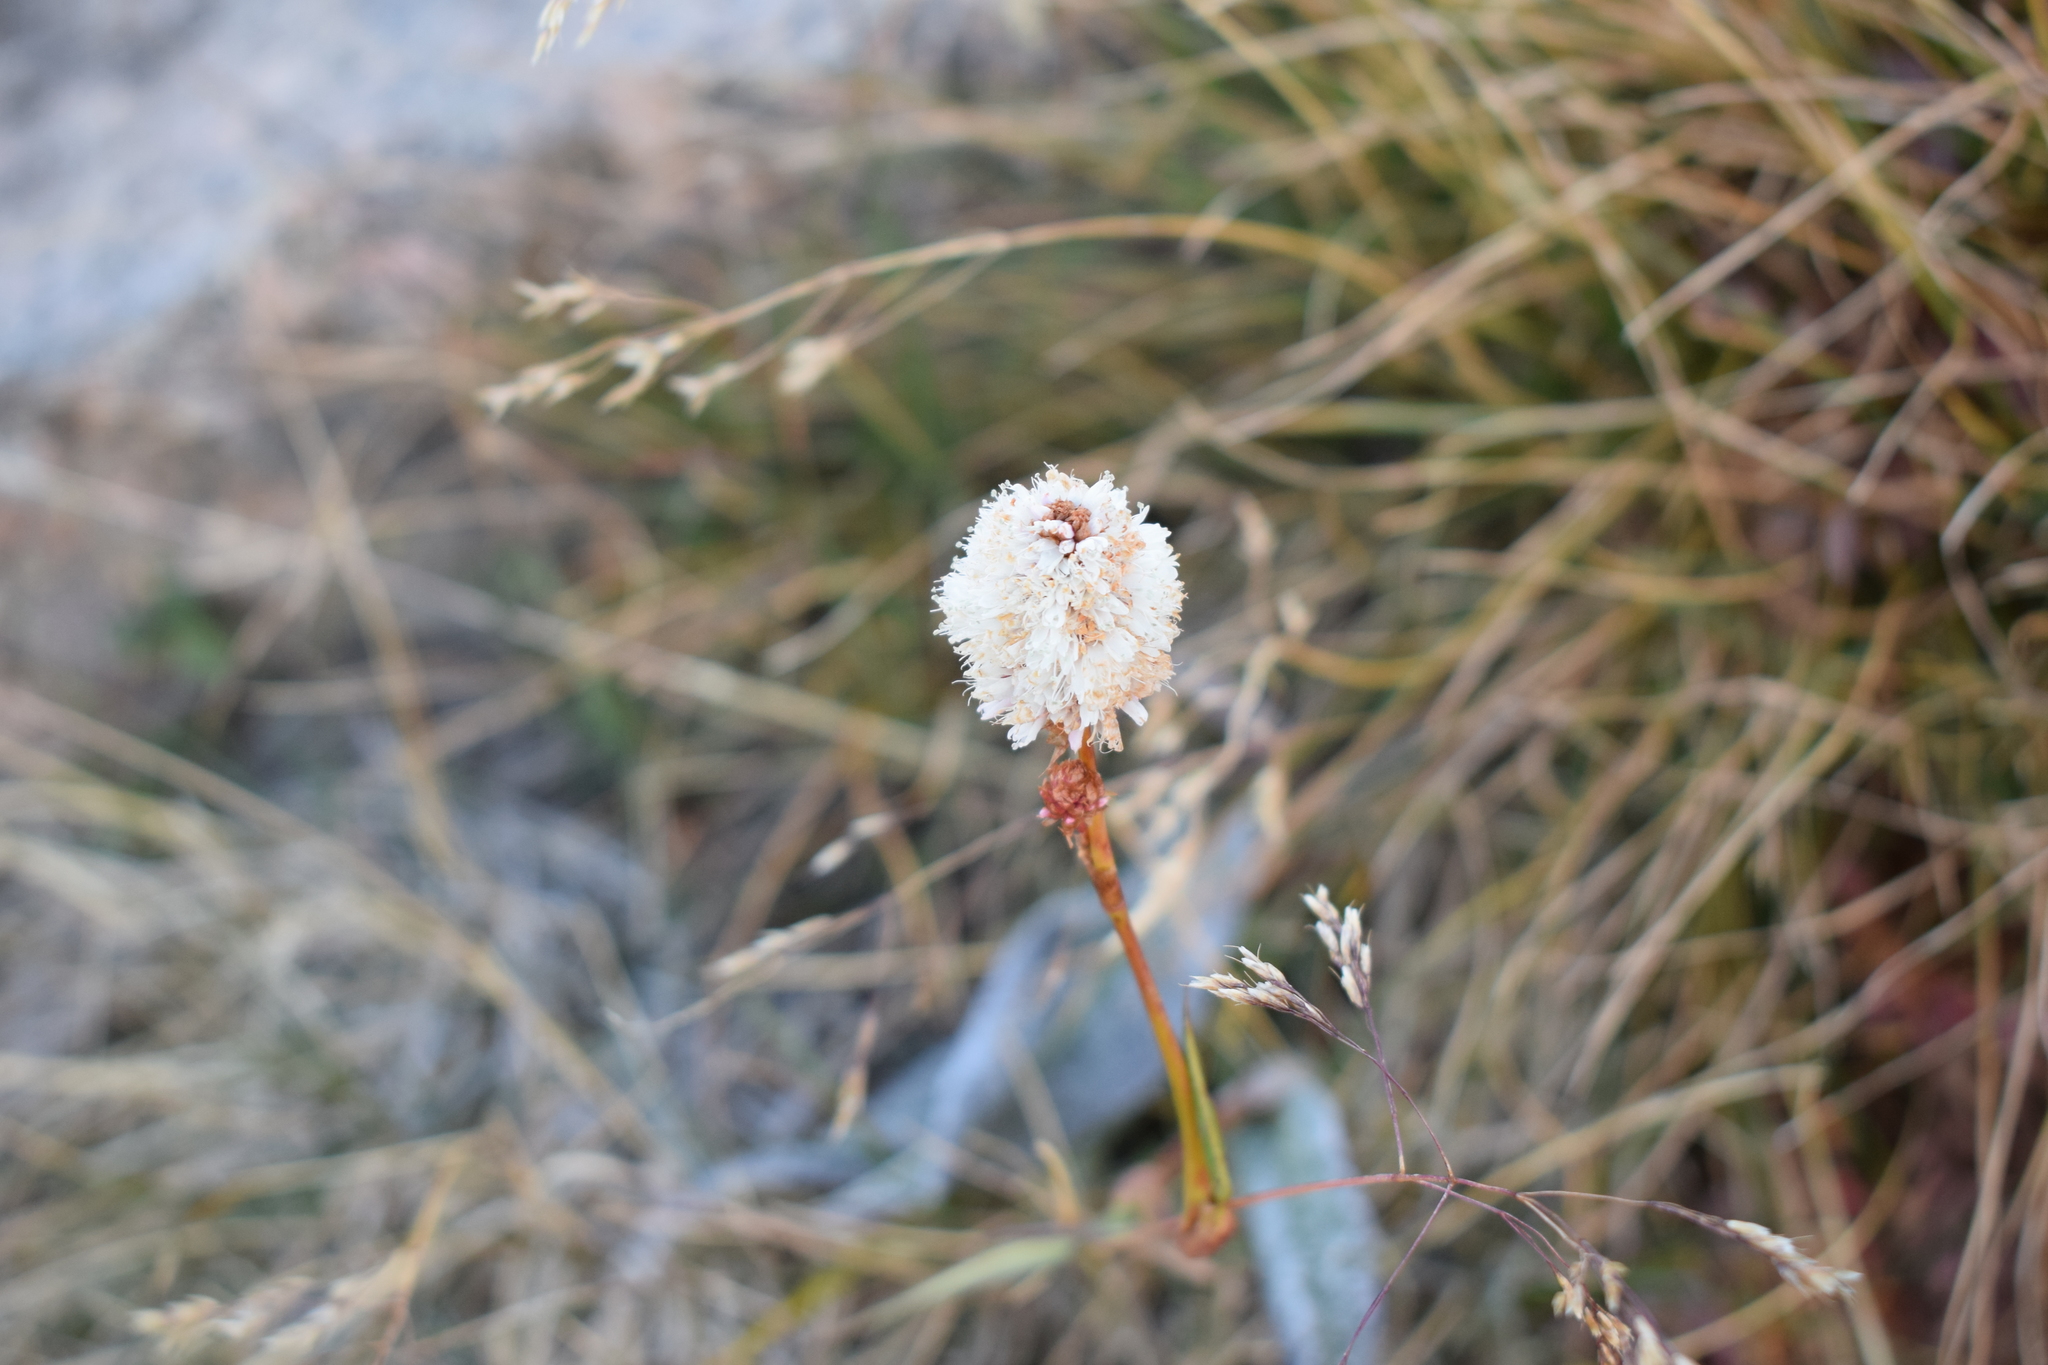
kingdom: Plantae
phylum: Tracheophyta
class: Magnoliopsida
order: Caryophyllales
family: Polygonaceae
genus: Bistorta
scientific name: Bistorta bistortoides
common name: American bistort
